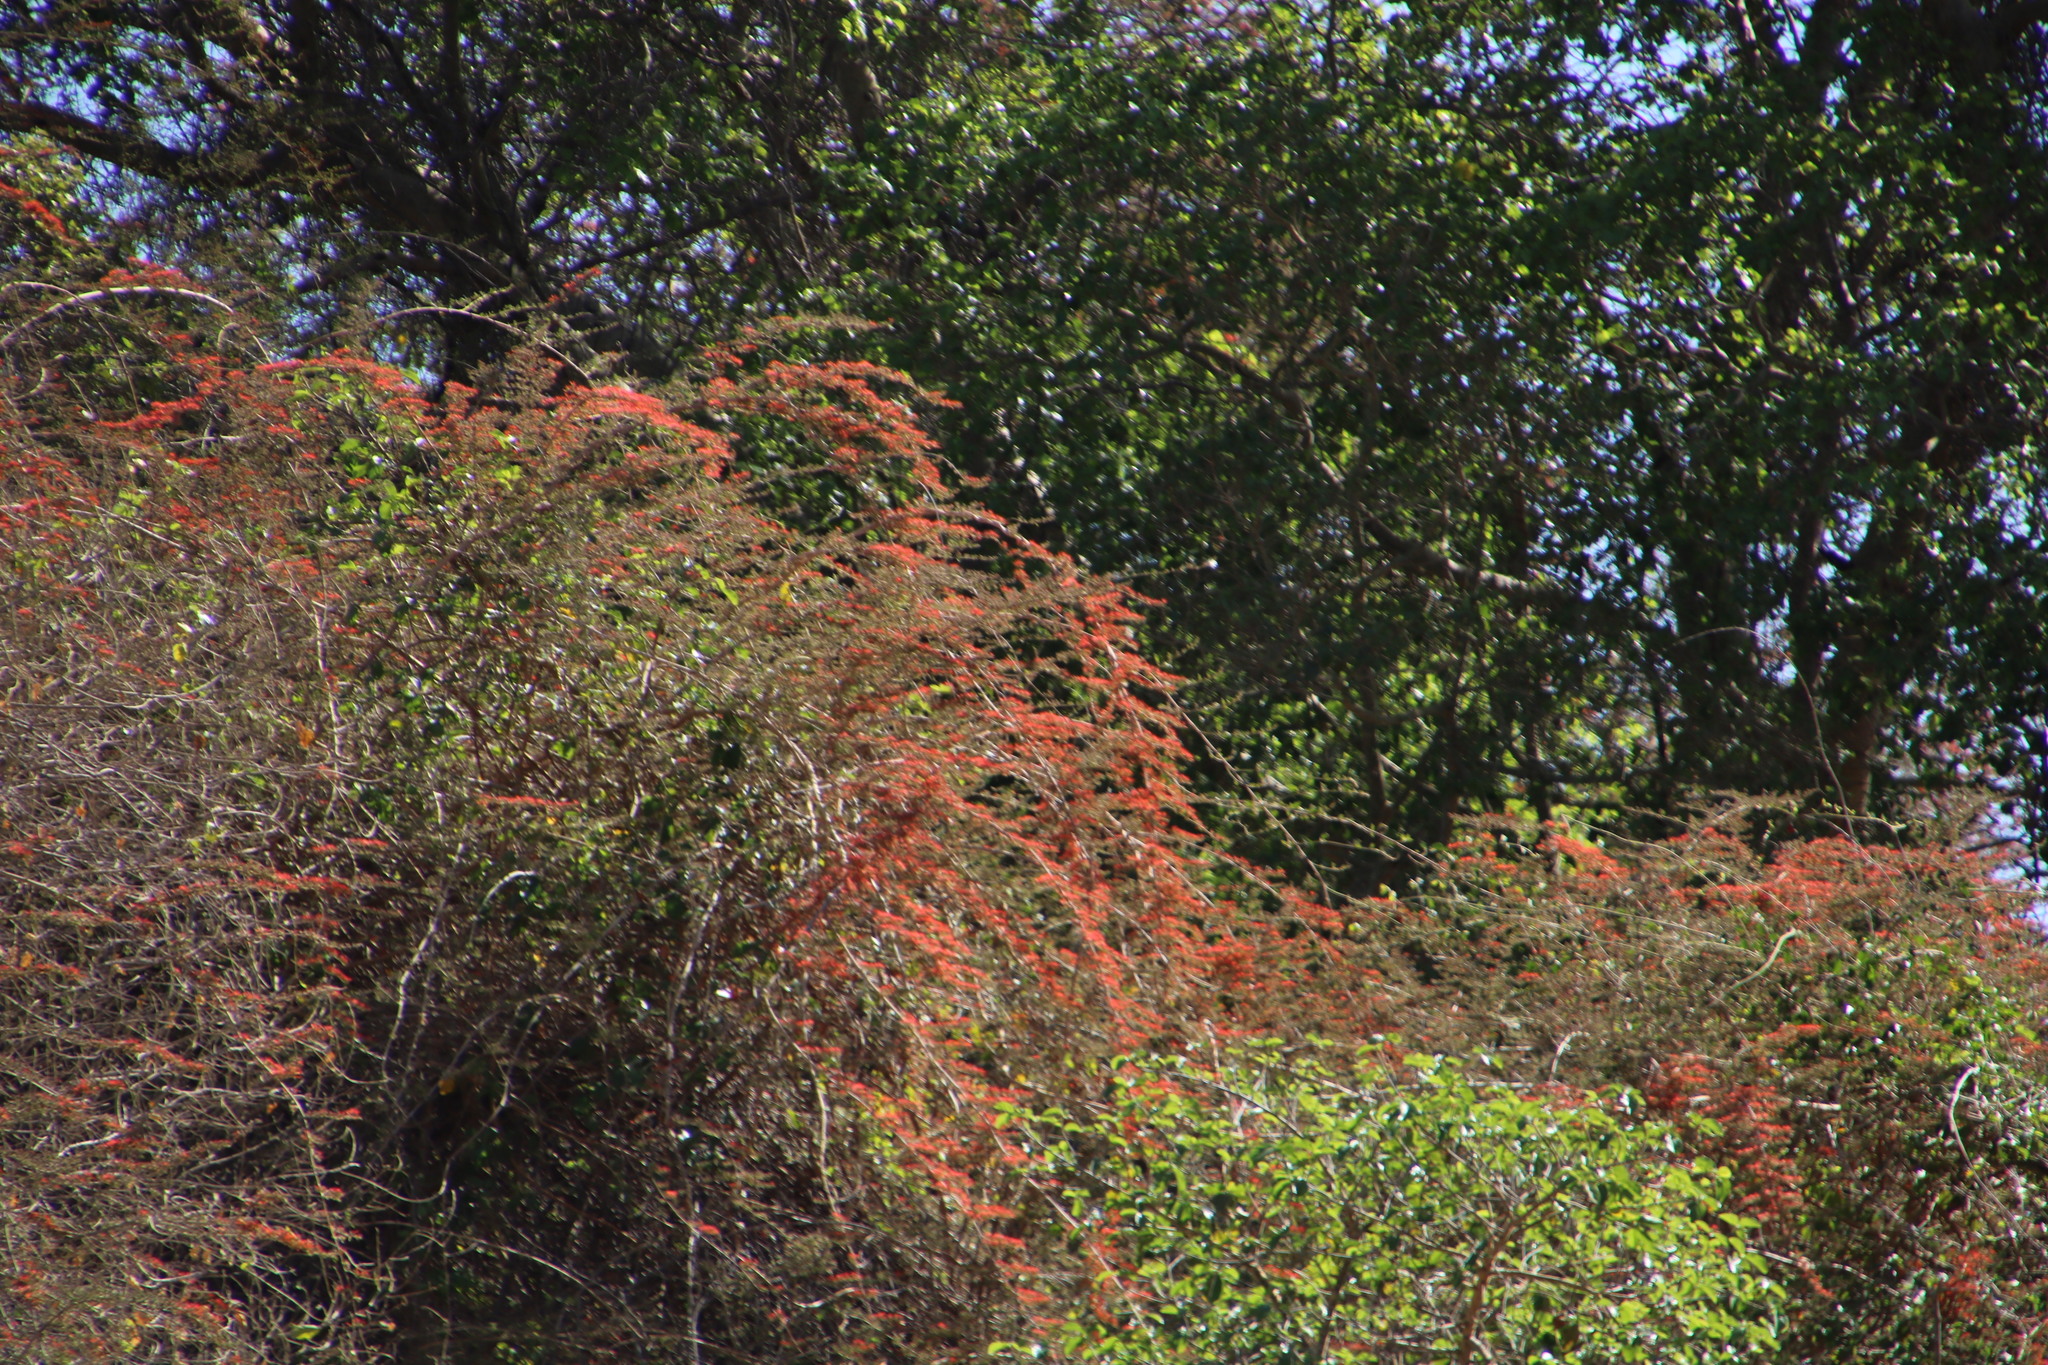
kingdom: Plantae
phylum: Tracheophyta
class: Magnoliopsida
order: Myrtales
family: Combretaceae
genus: Combretum
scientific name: Combretum microphyllum
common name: Burningbush
